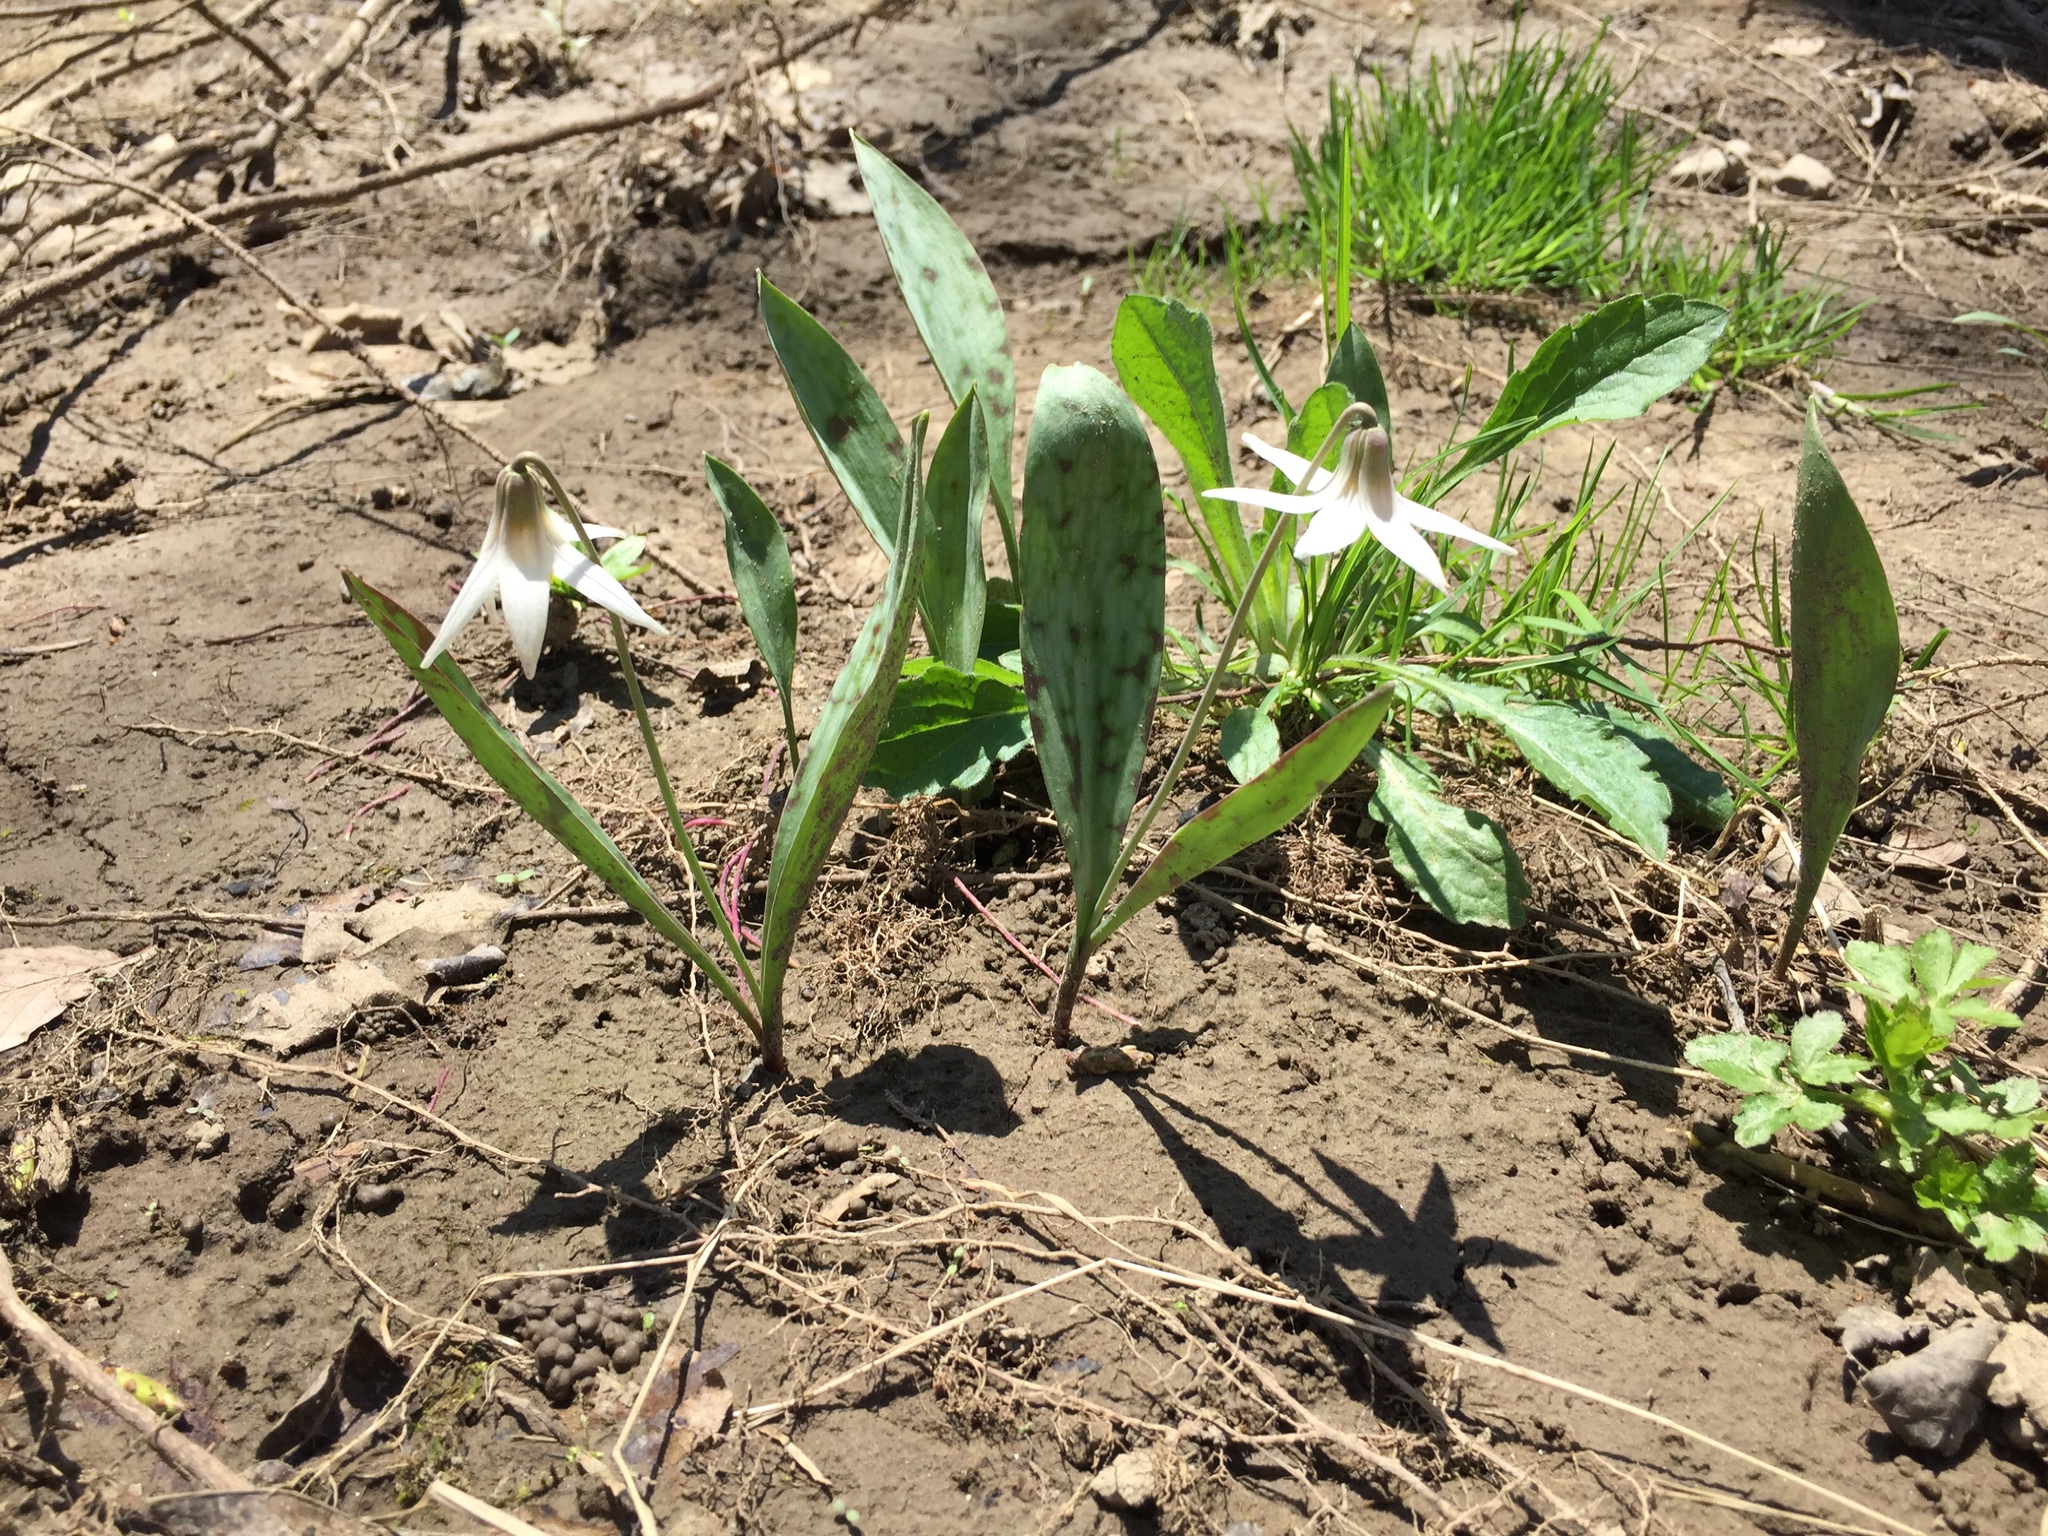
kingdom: Plantae
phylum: Tracheophyta
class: Liliopsida
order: Liliales
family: Liliaceae
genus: Erythronium
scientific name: Erythronium albidum
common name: White trout-lily
